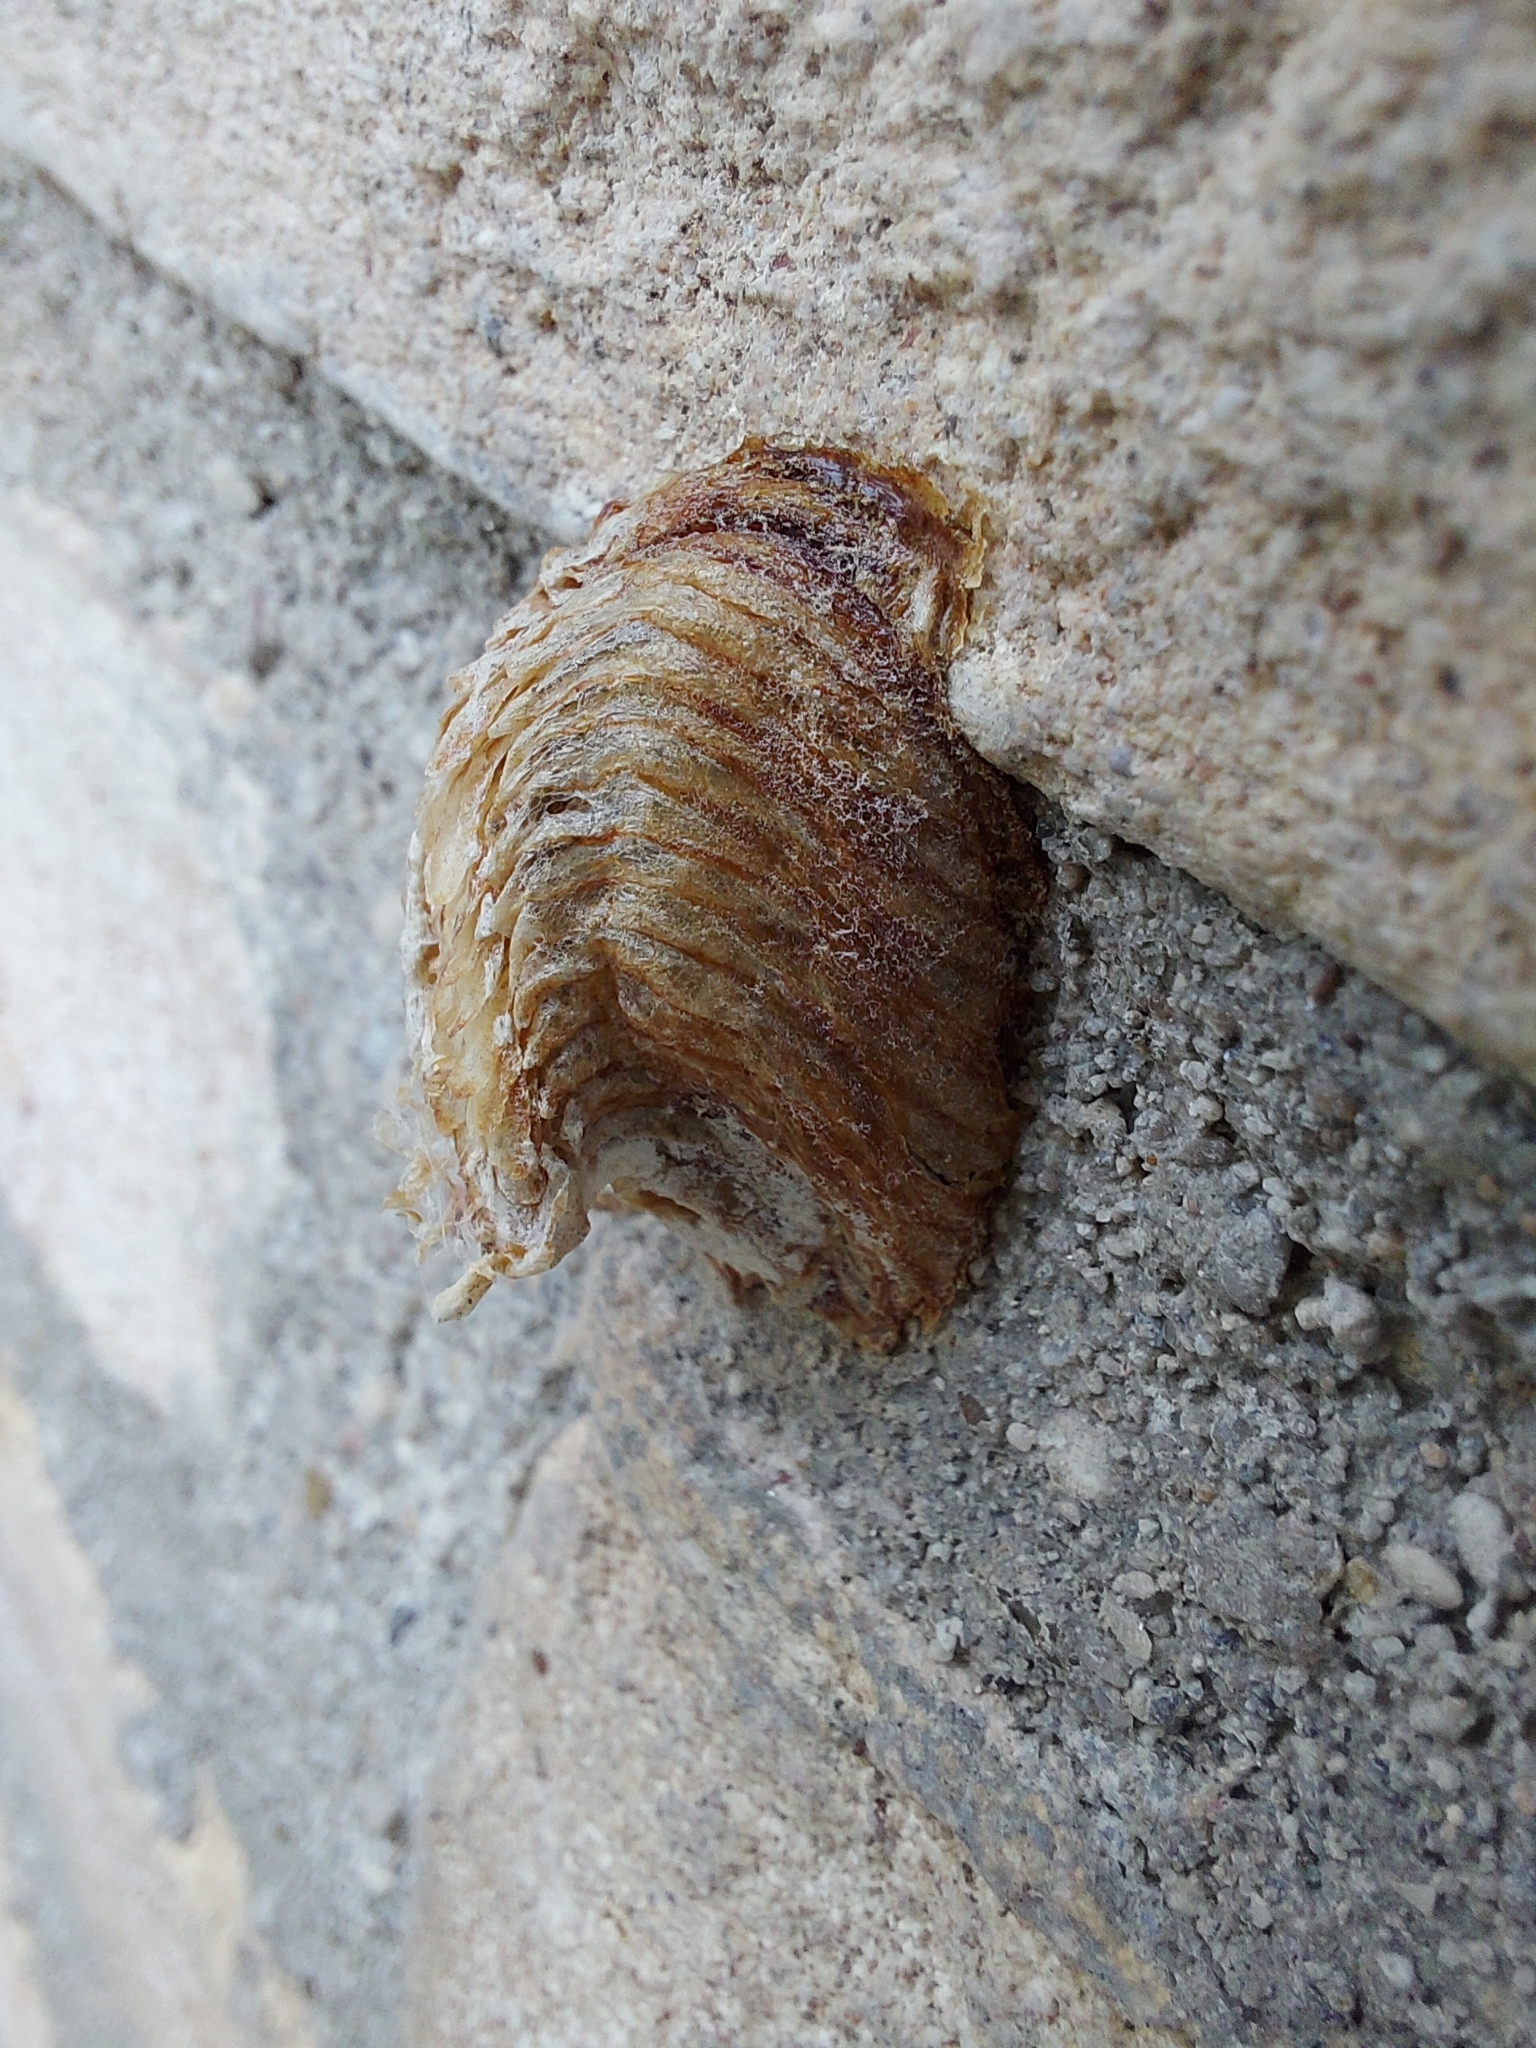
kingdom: Animalia
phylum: Arthropoda
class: Insecta
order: Mantodea
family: Mantidae
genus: Hierodula
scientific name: Hierodula transcaucasica
